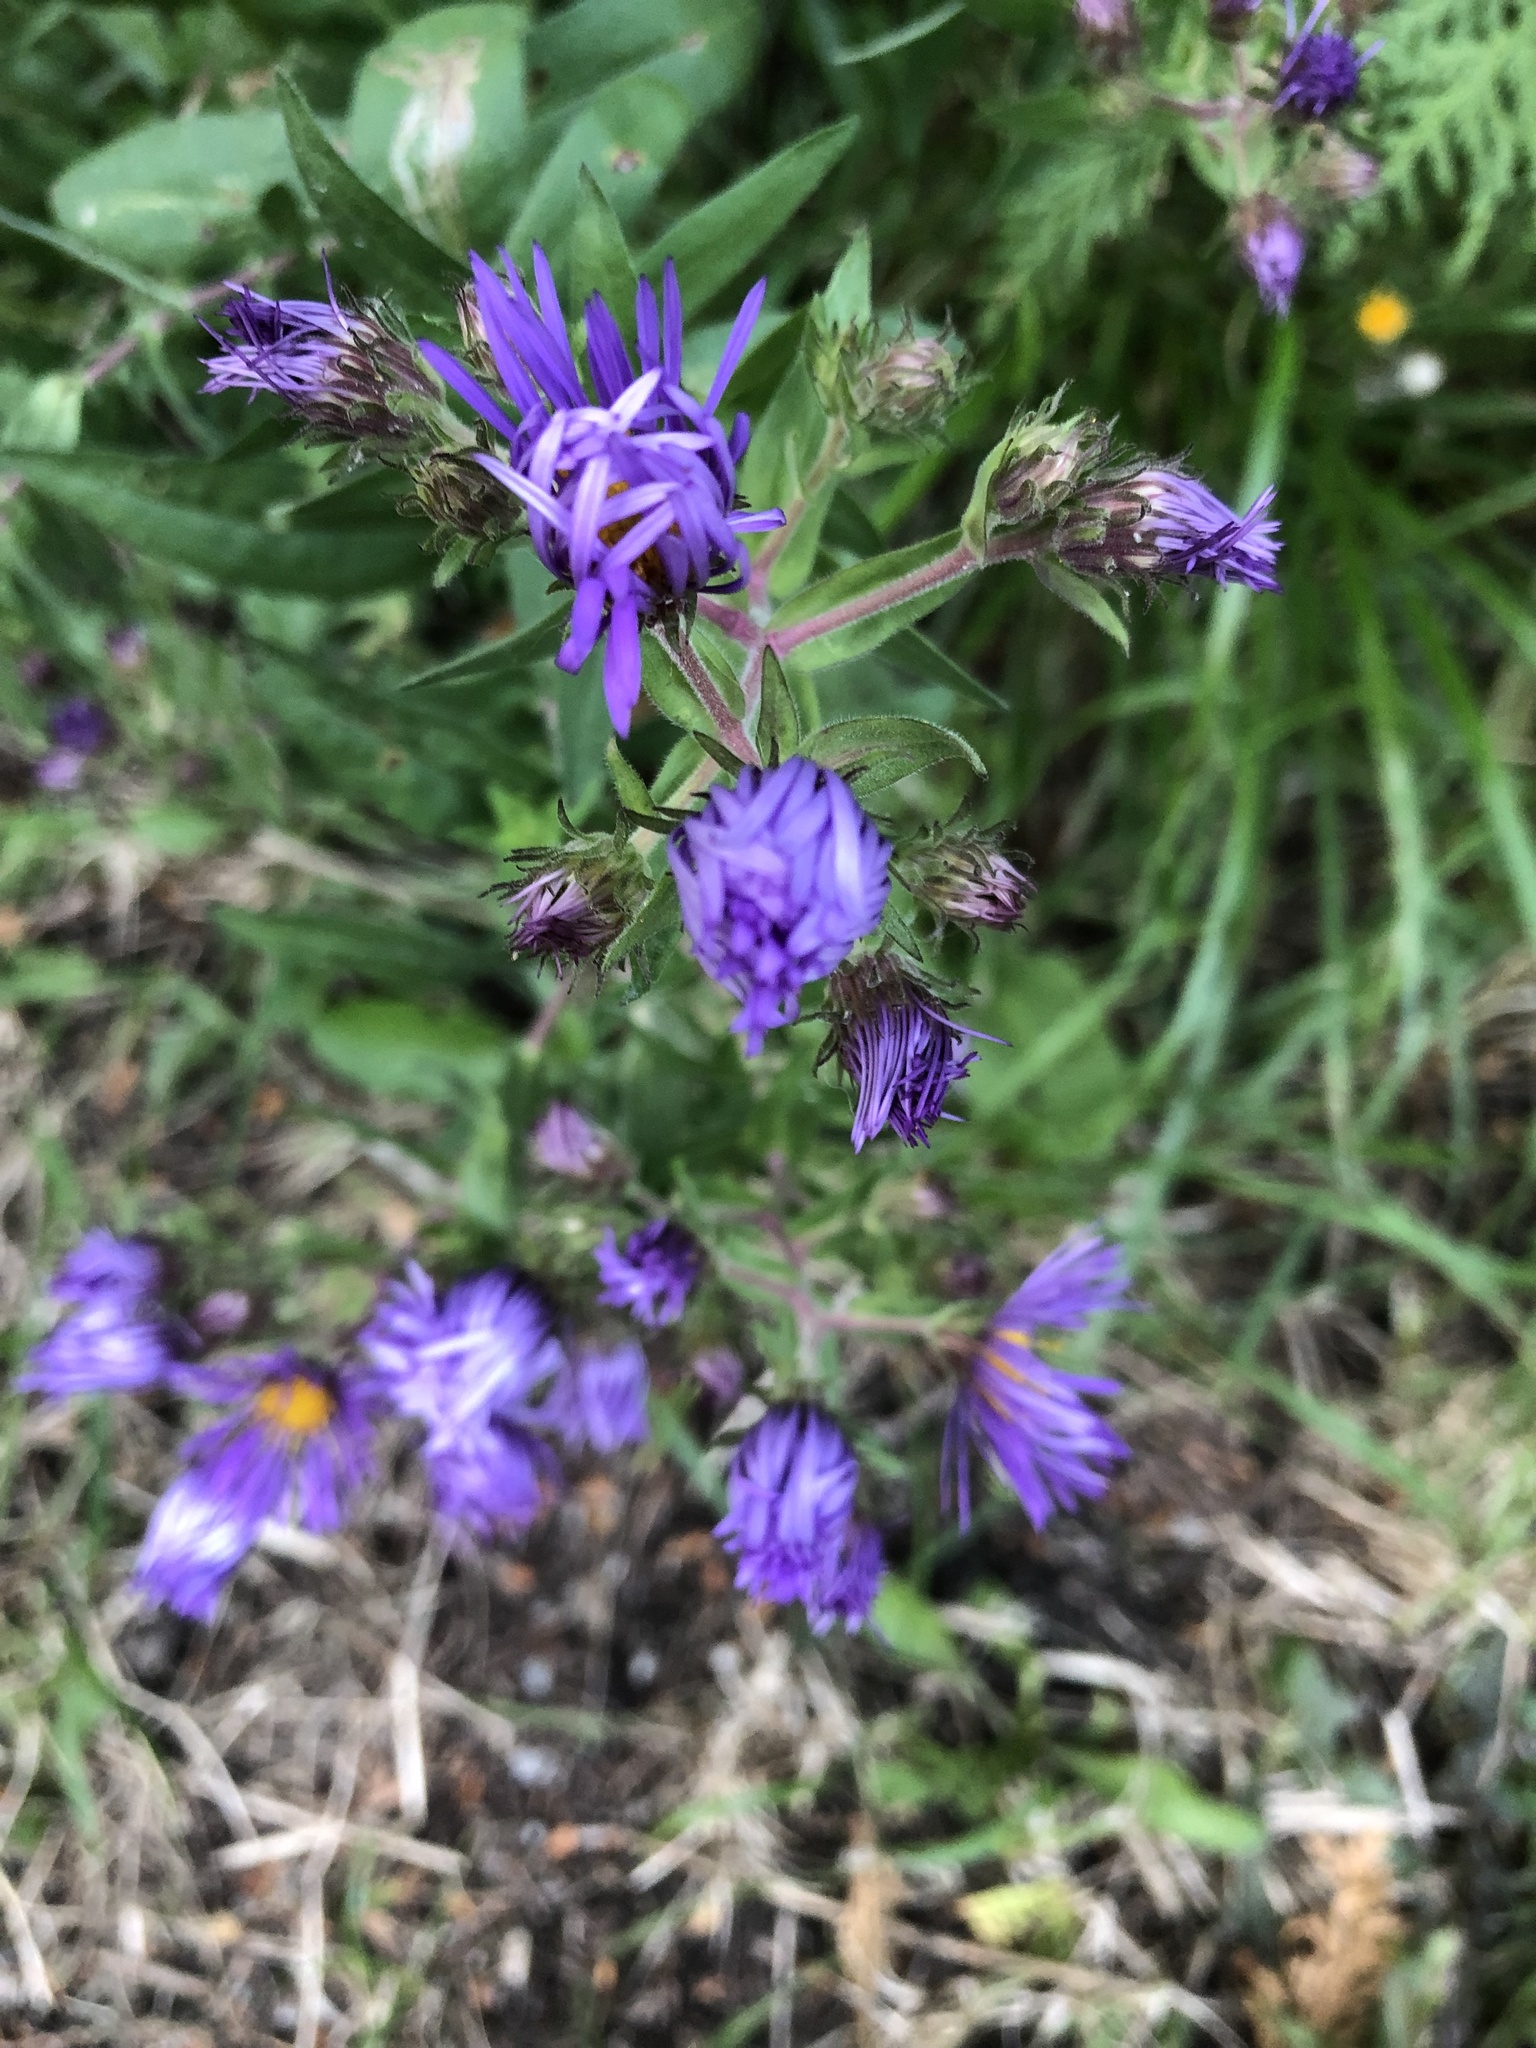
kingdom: Plantae
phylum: Tracheophyta
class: Magnoliopsida
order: Asterales
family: Asteraceae
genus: Symphyotrichum
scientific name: Symphyotrichum novae-angliae
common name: Michaelmas daisy
